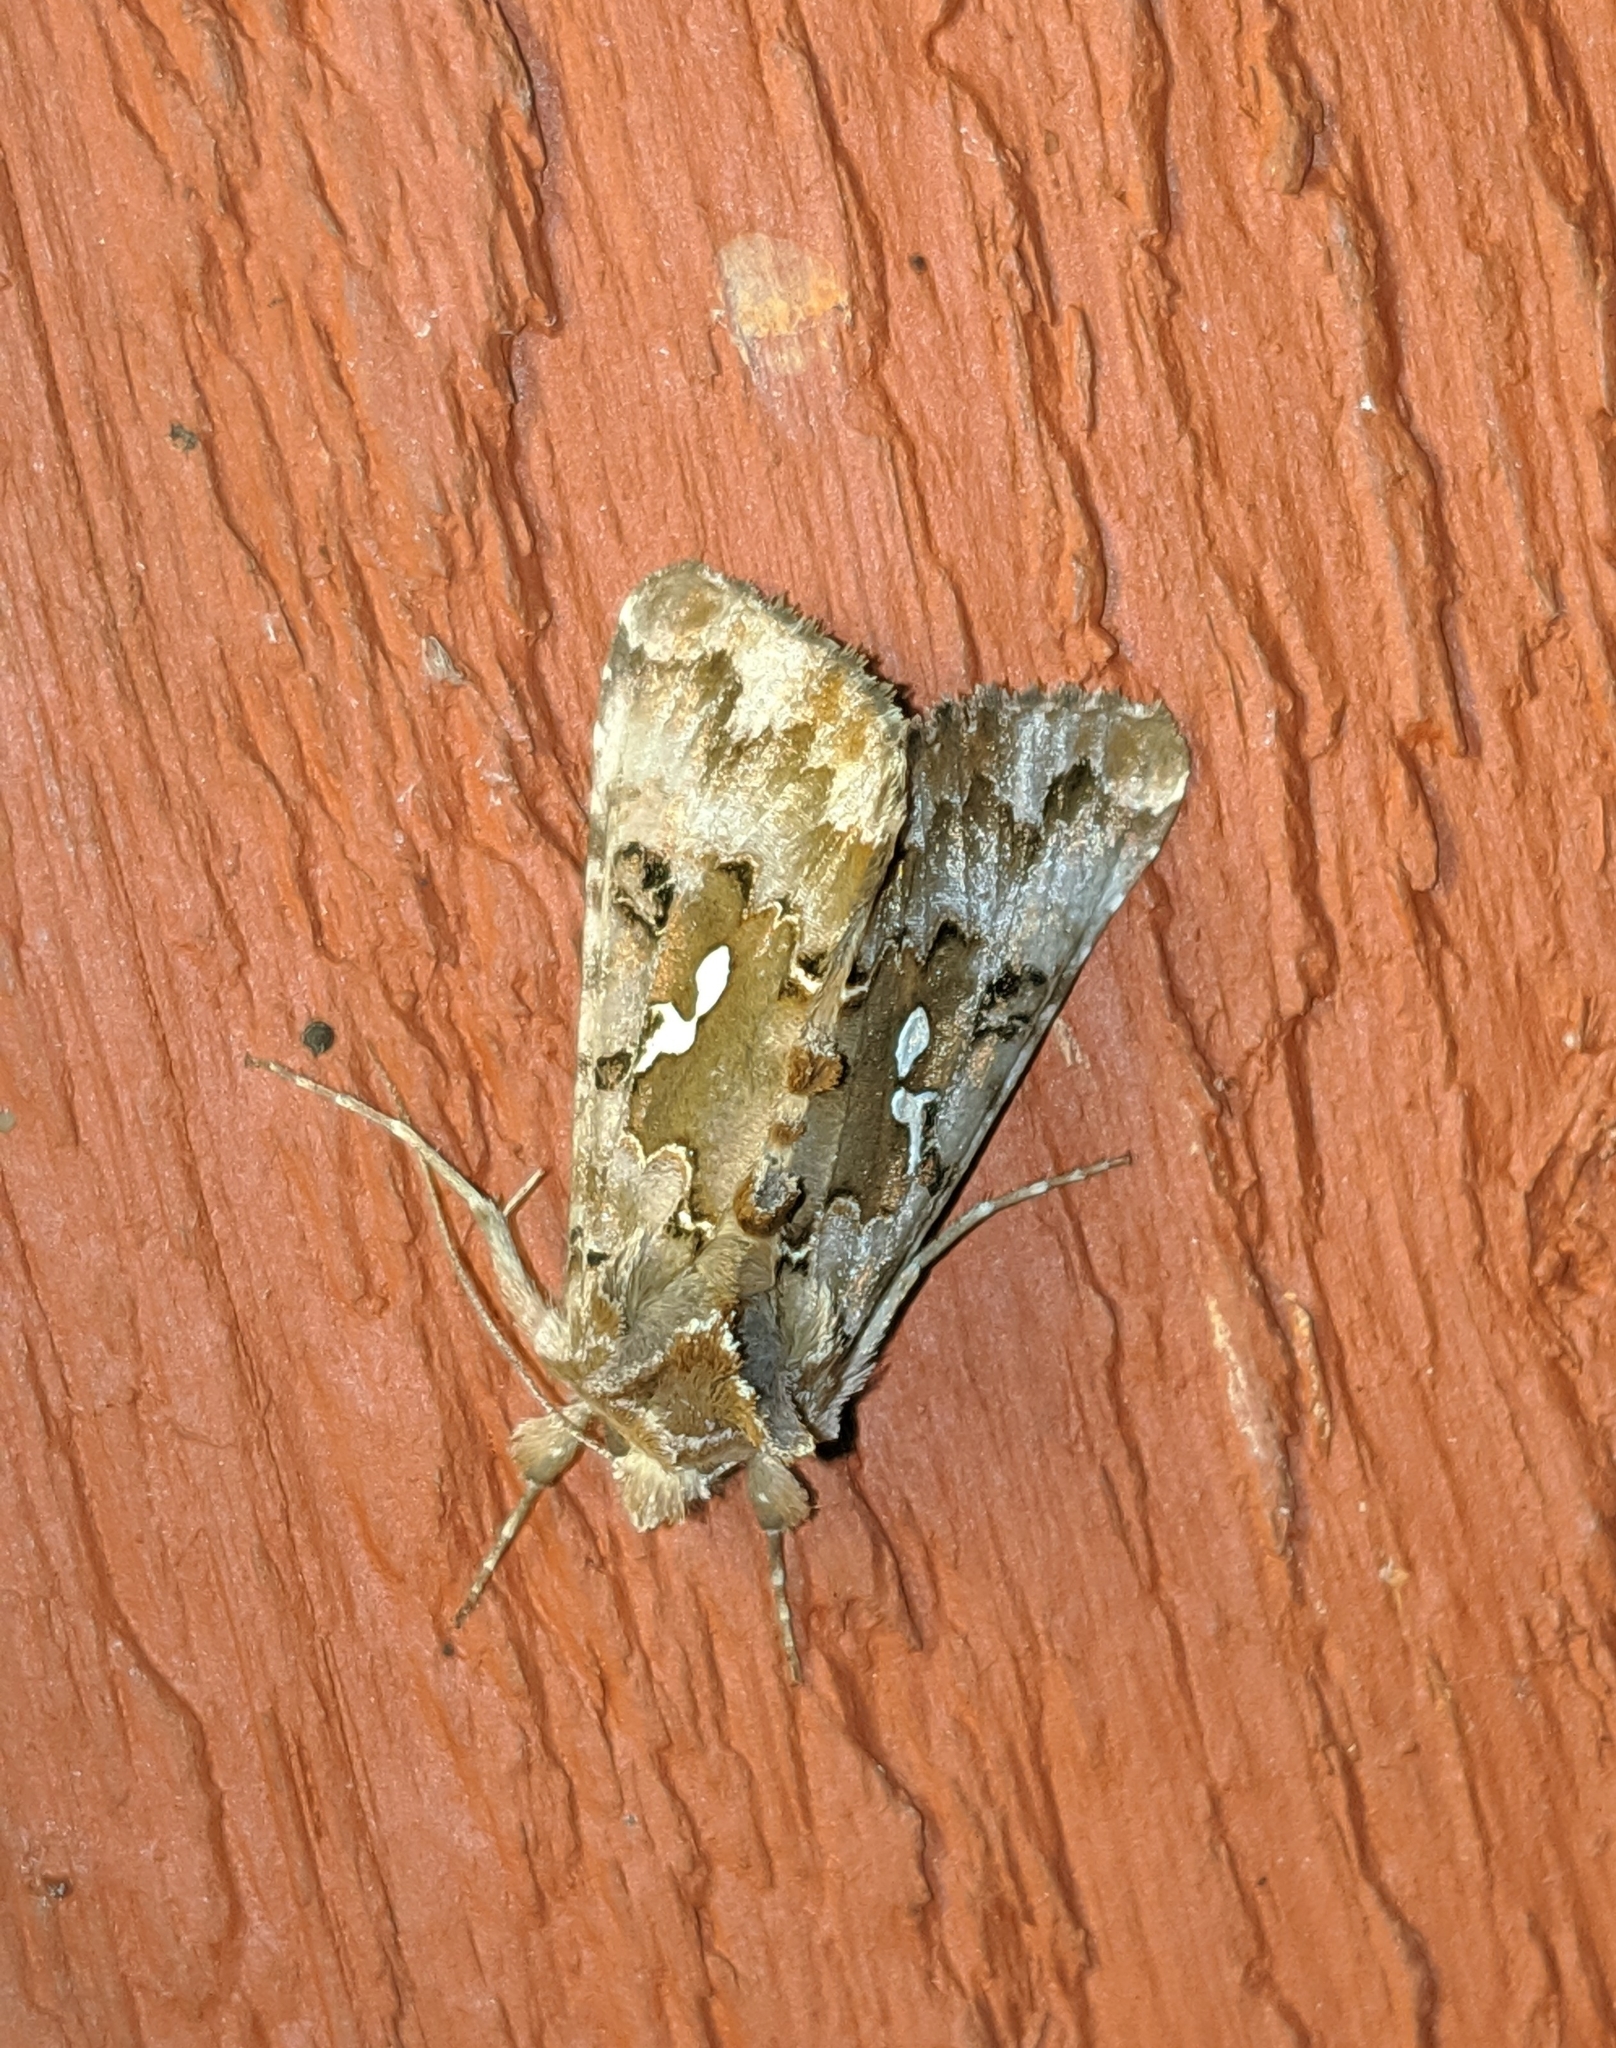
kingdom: Animalia
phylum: Arthropoda
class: Insecta
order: Lepidoptera
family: Noctuidae
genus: Autographa
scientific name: Autographa corusca
